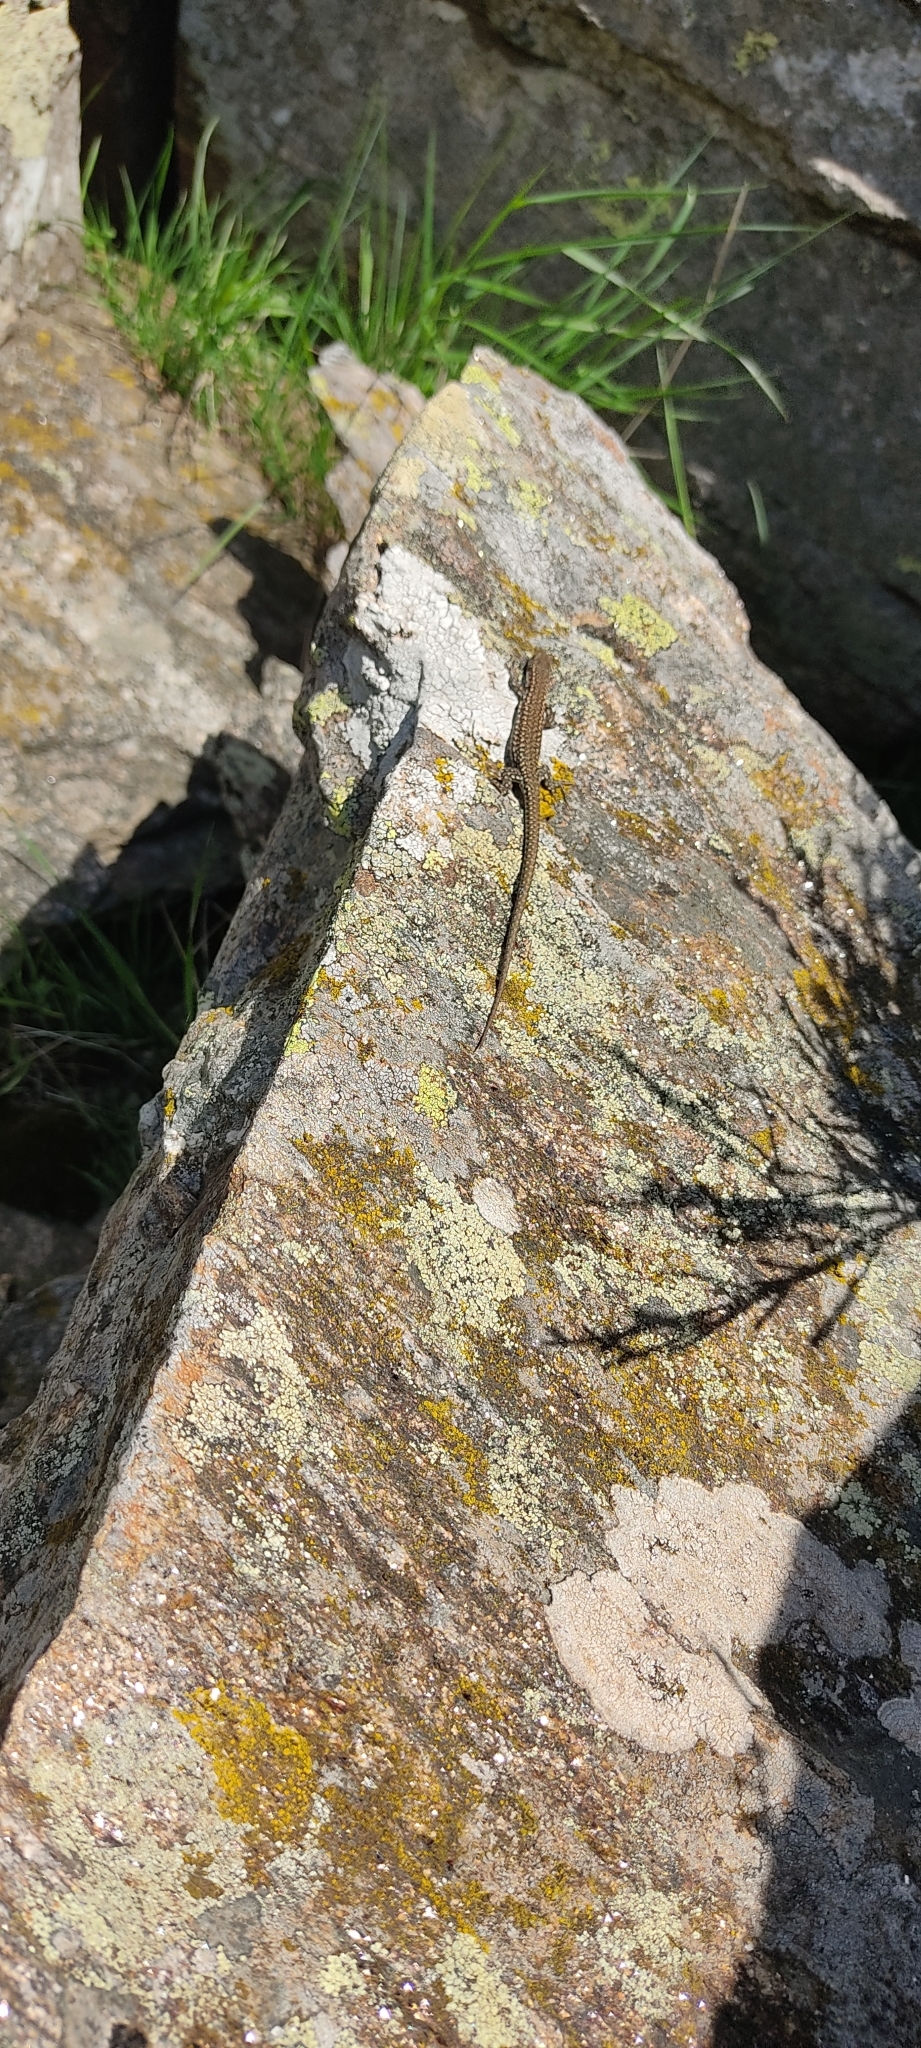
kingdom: Animalia
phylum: Chordata
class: Squamata
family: Lacertidae
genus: Podarcis
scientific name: Podarcis liolepis
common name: Catalonian wall lizard
